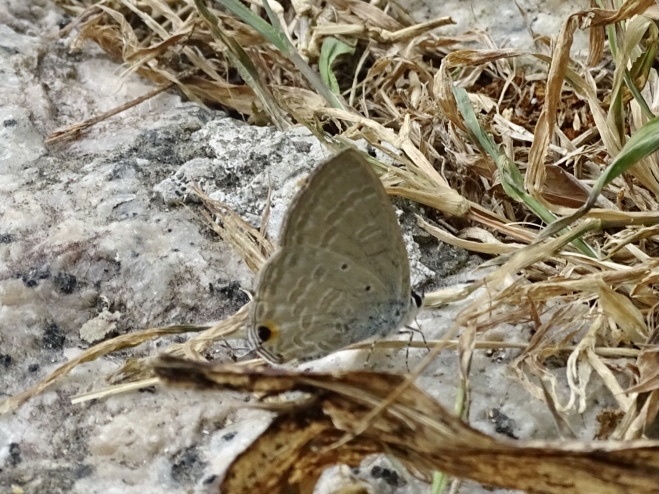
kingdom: Animalia
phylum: Arthropoda
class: Insecta
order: Lepidoptera
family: Lycaenidae
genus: Catochrysops
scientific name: Catochrysops strabo
